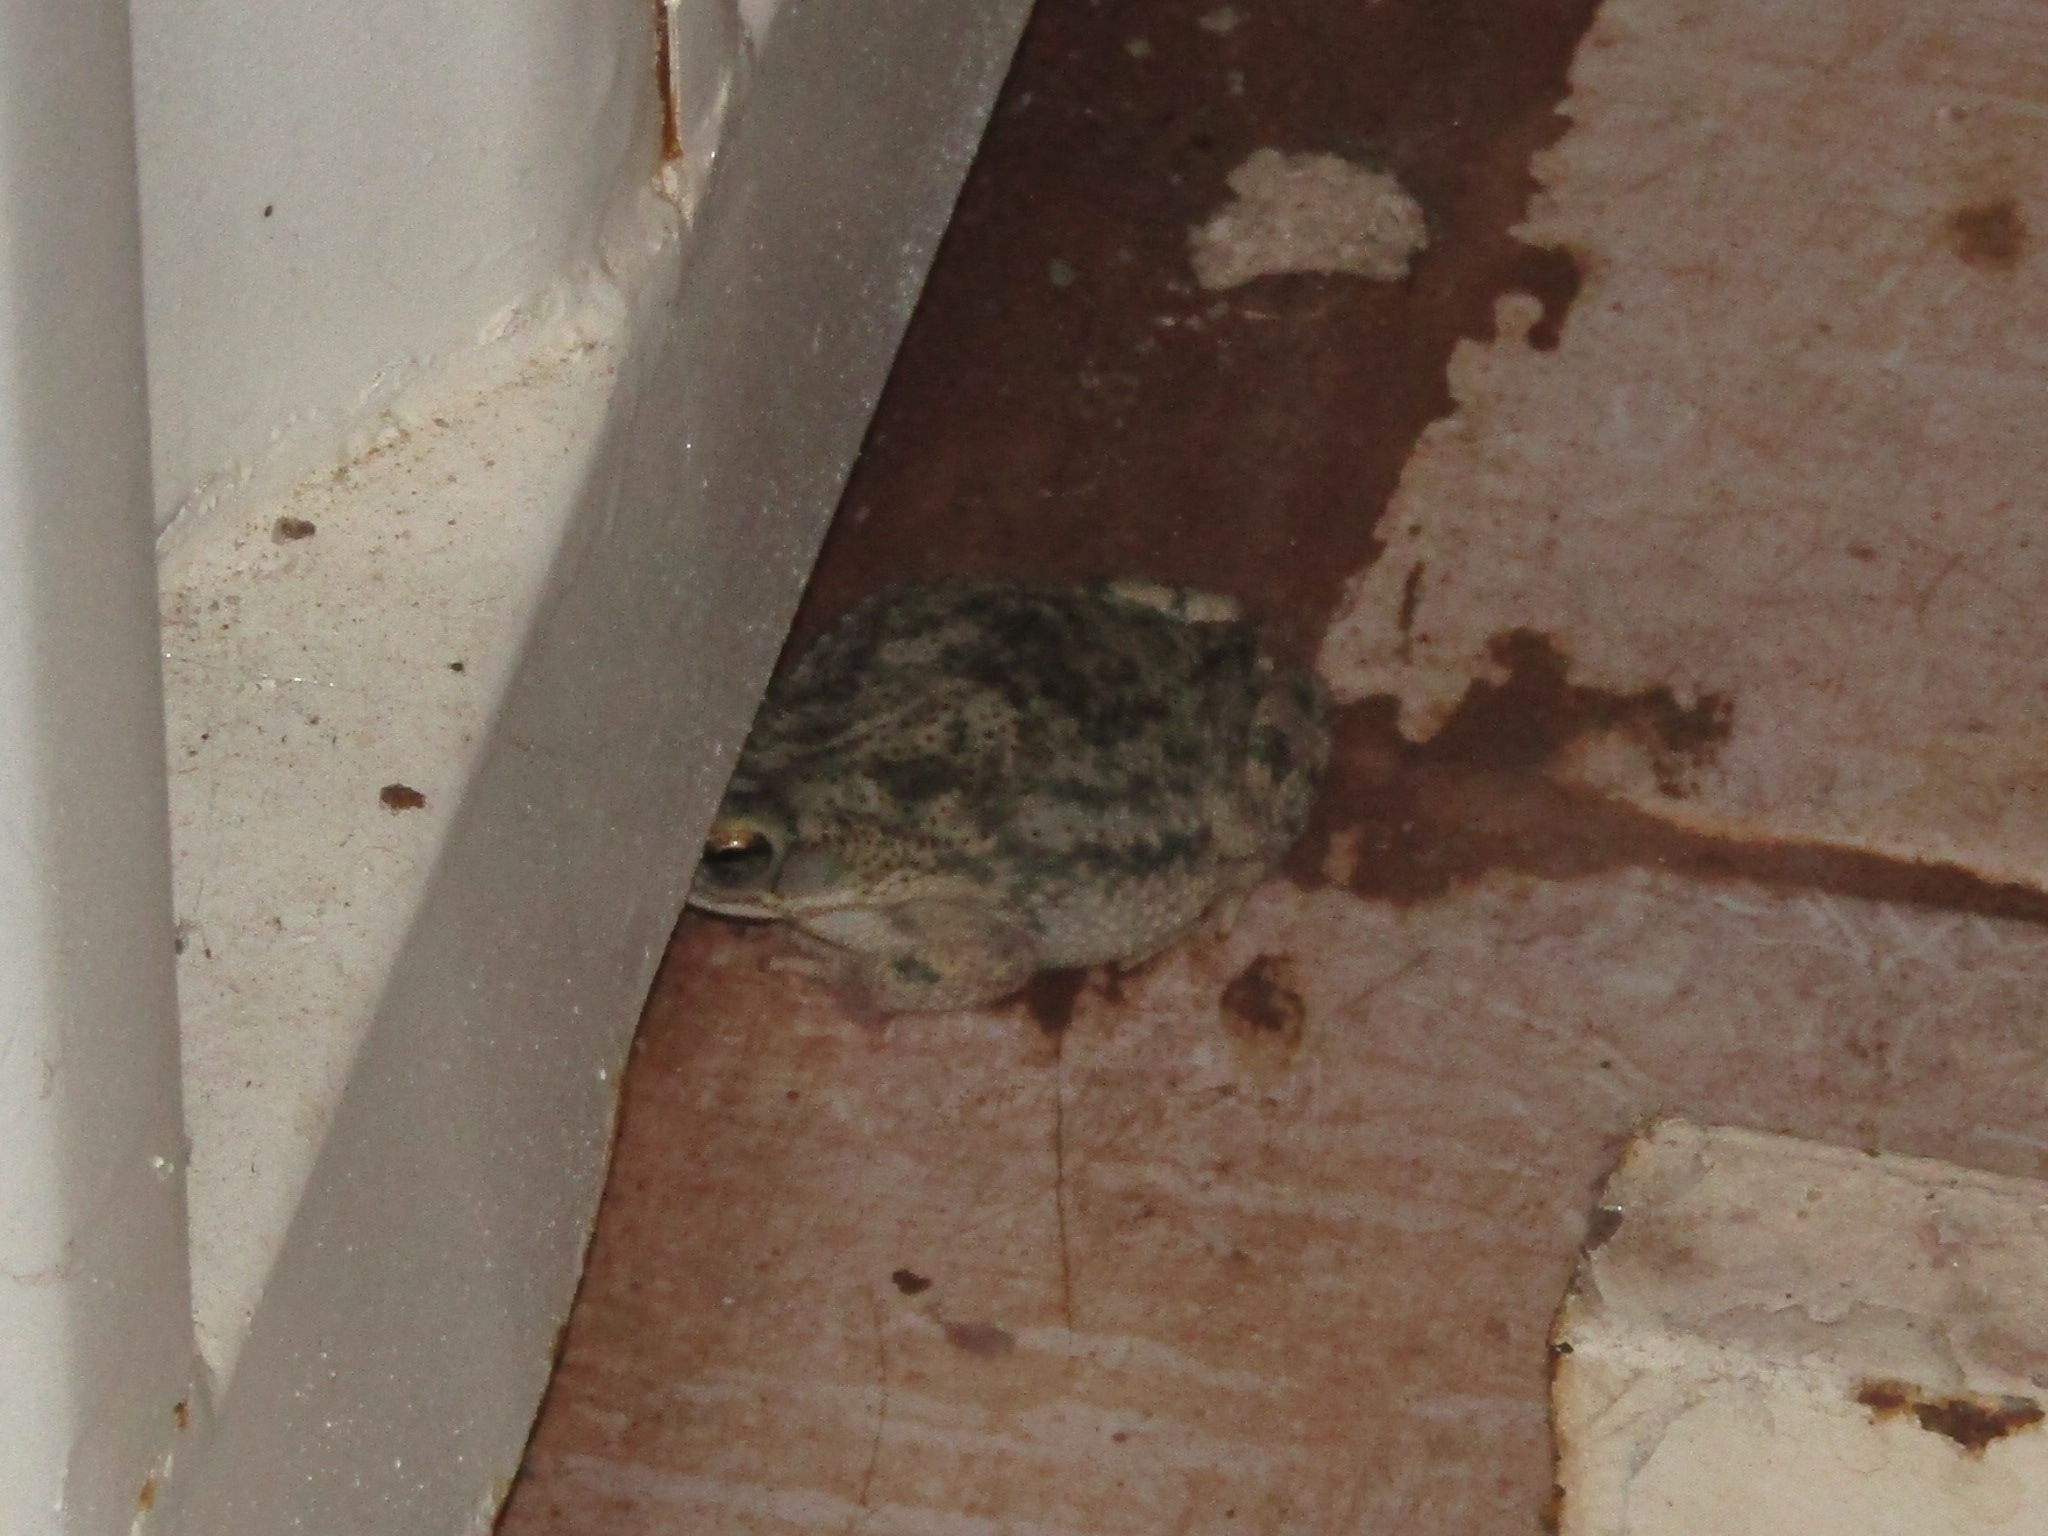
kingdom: Animalia
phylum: Chordata
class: Amphibia
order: Anura
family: Bufonidae
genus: Rhinella
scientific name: Rhinella granulosa
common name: Common lesser toad
